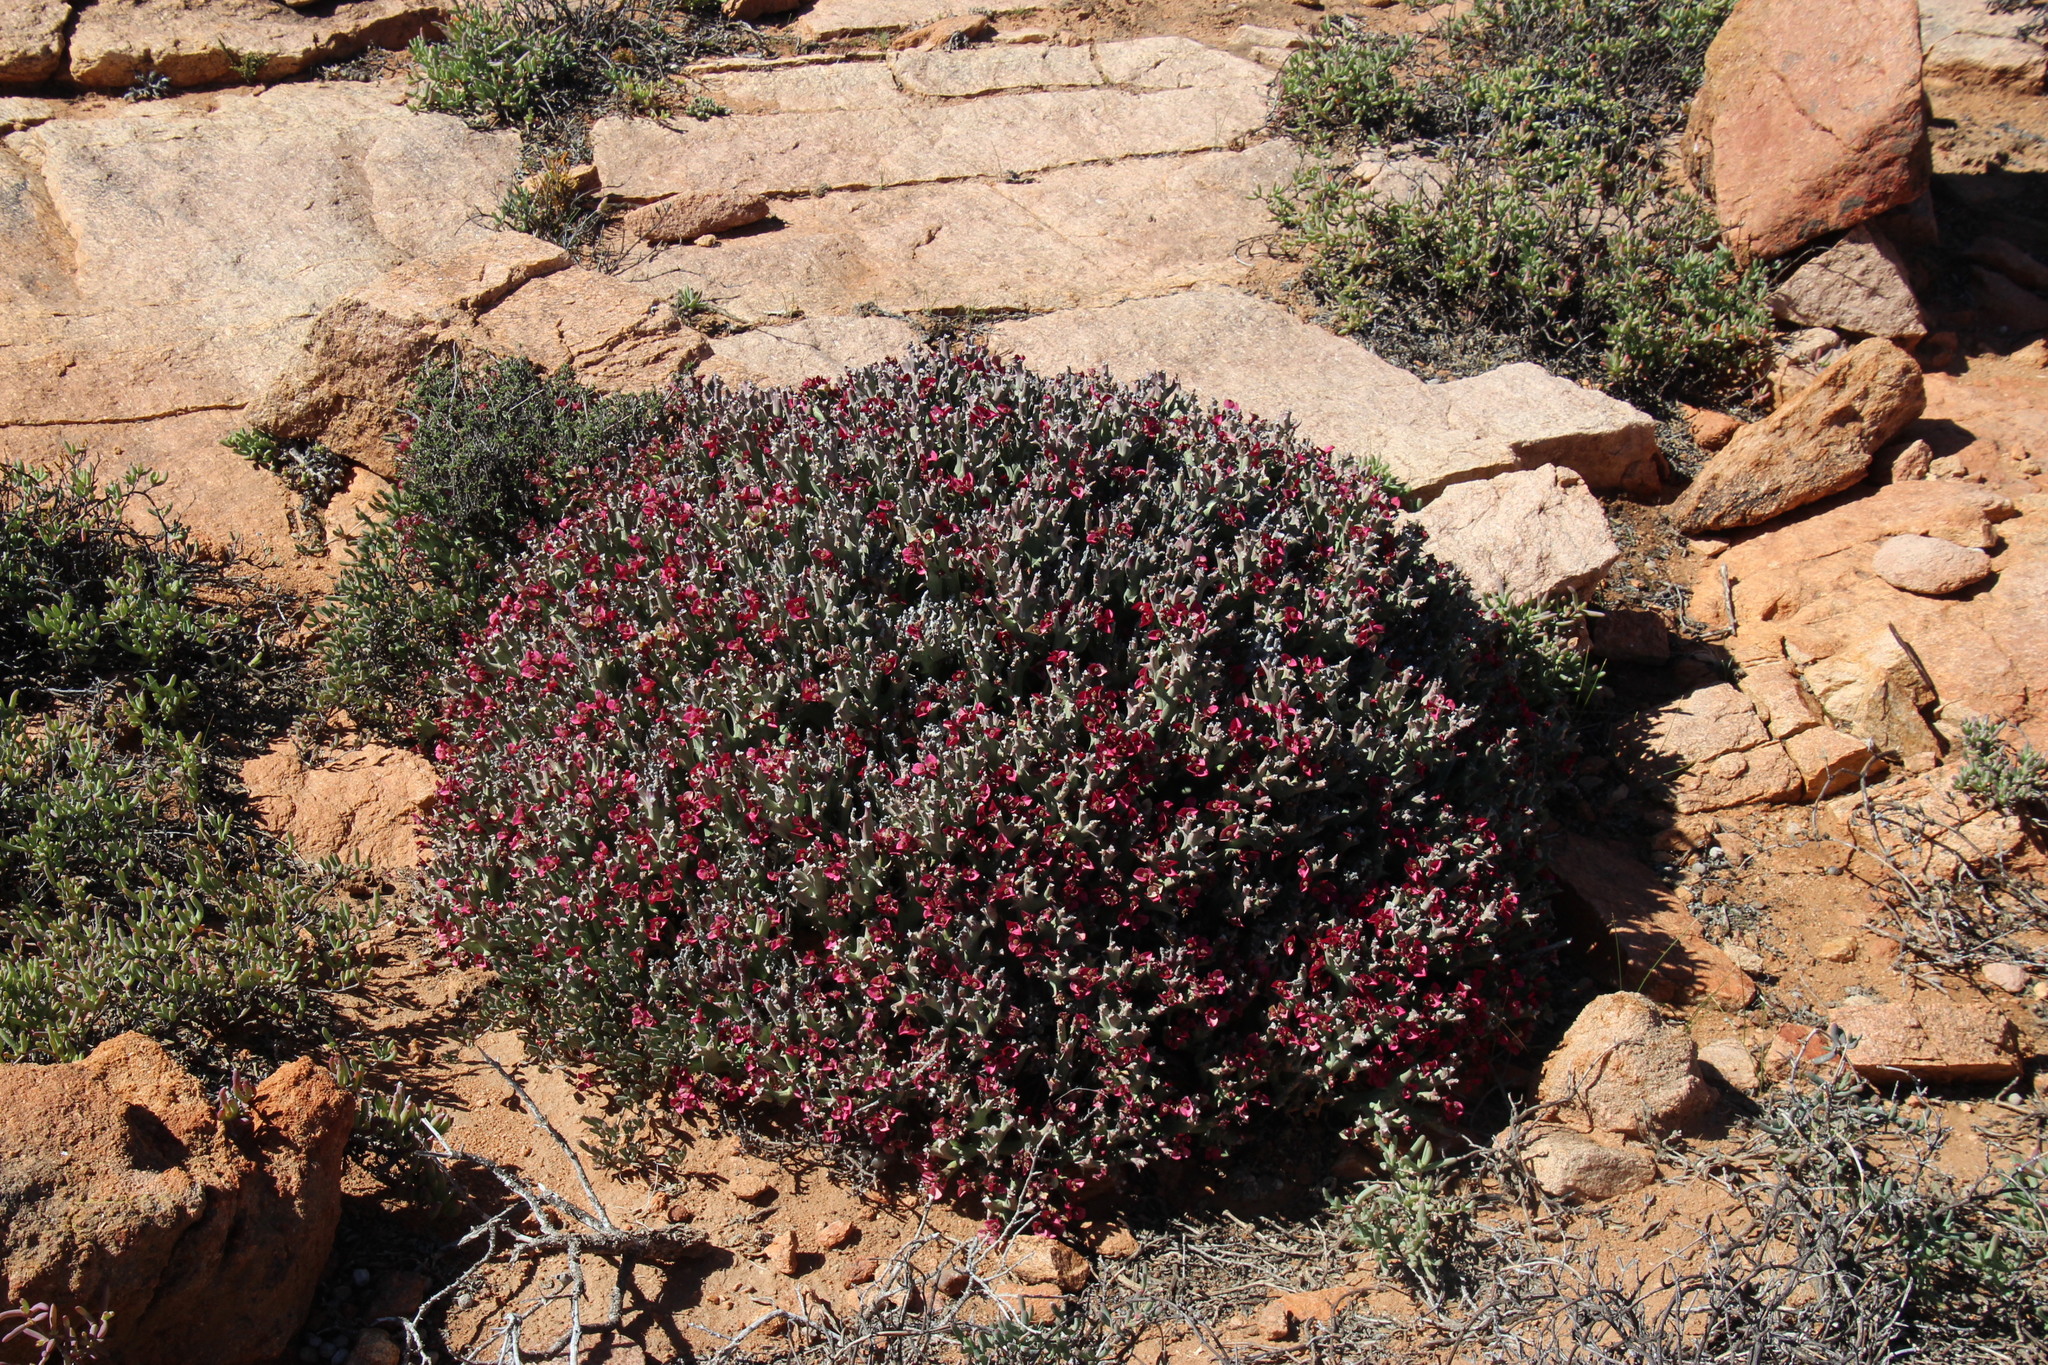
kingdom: Plantae
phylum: Tracheophyta
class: Magnoliopsida
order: Malpighiales
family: Euphorbiaceae
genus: Euphorbia
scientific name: Euphorbia hamata
